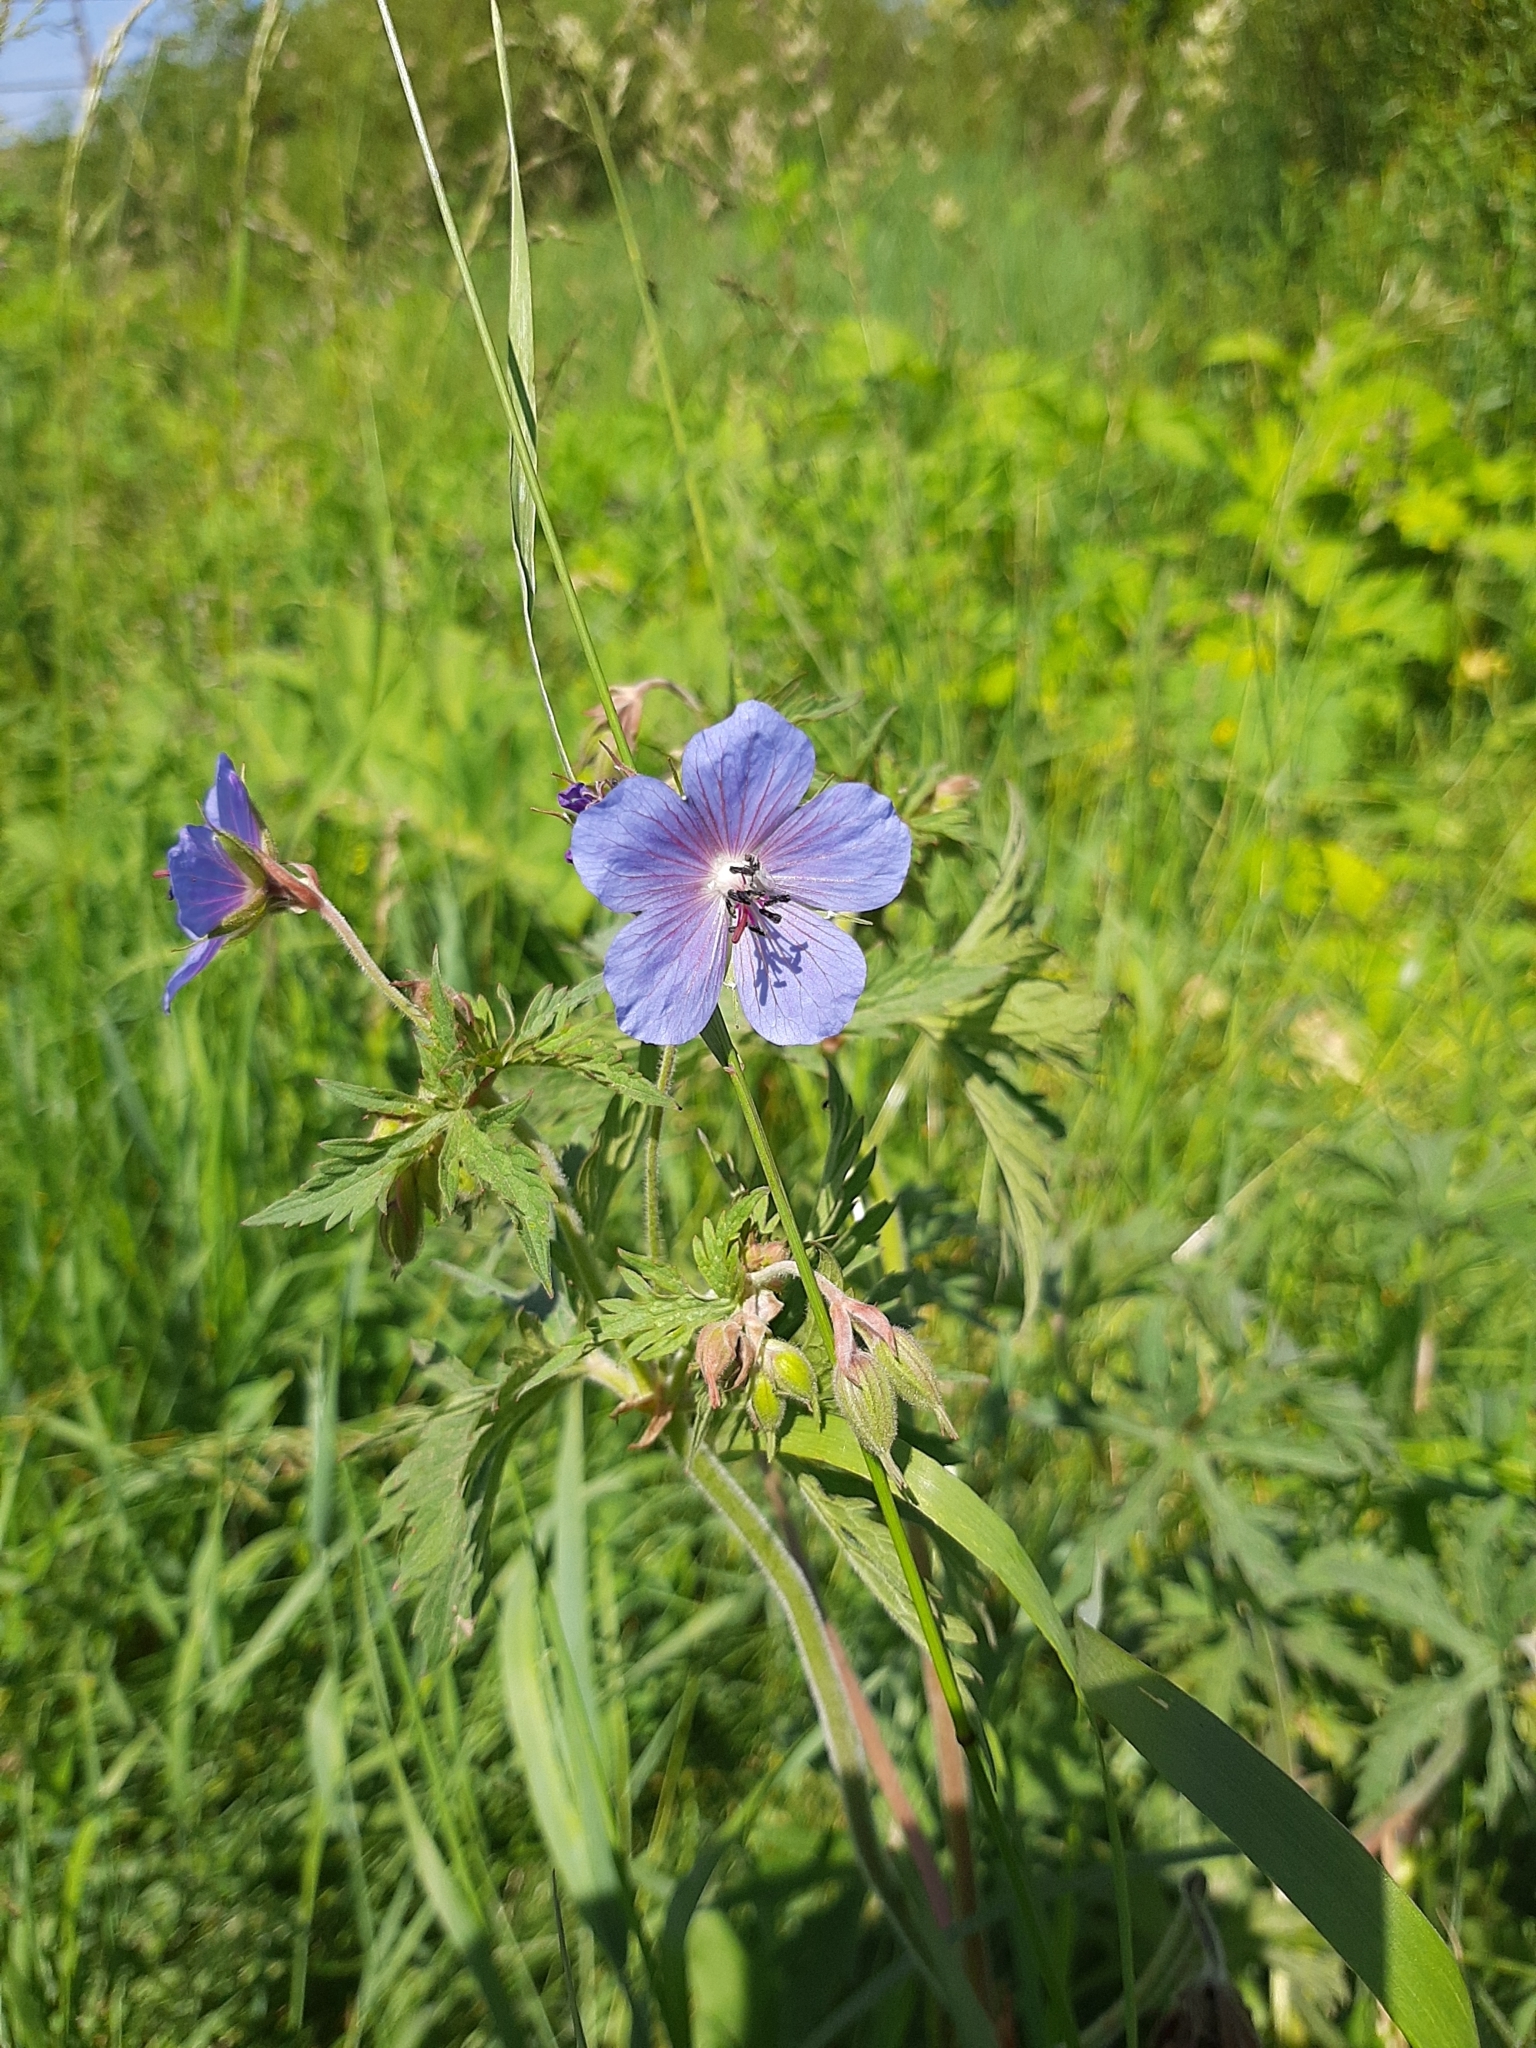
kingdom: Plantae
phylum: Tracheophyta
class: Magnoliopsida
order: Geraniales
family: Geraniaceae
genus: Geranium
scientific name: Geranium pratense
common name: Meadow crane's-bill
